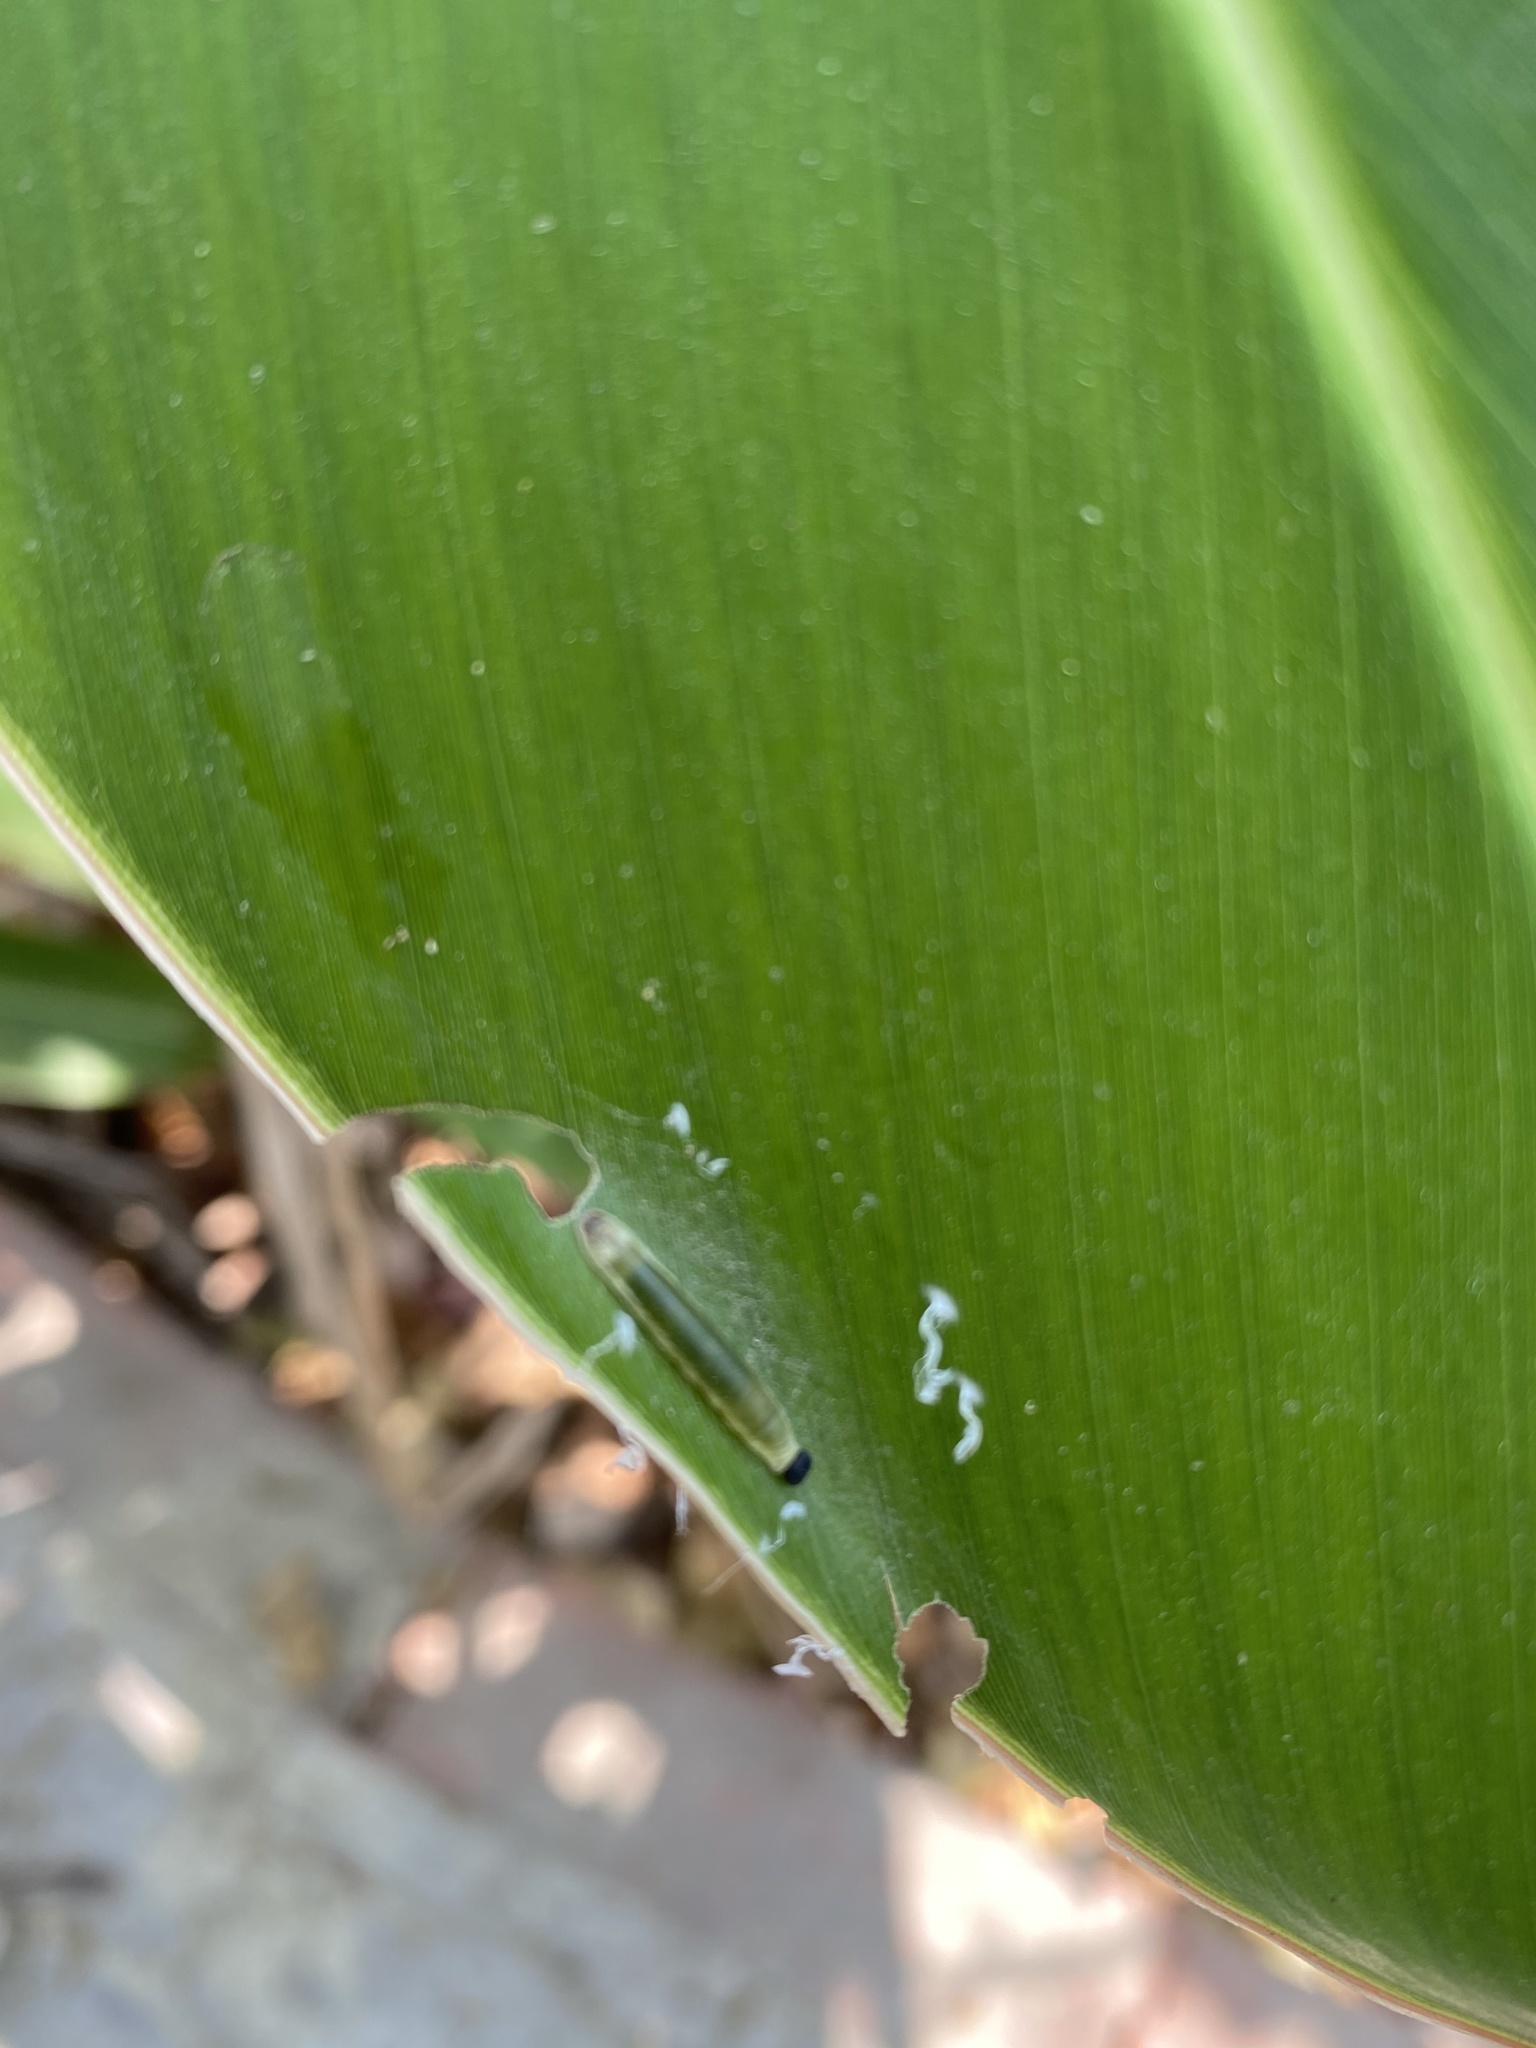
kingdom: Animalia
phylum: Arthropoda
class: Insecta
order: Lepidoptera
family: Hesperiidae
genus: Udaspes
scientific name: Udaspes folus
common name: Grass demon
